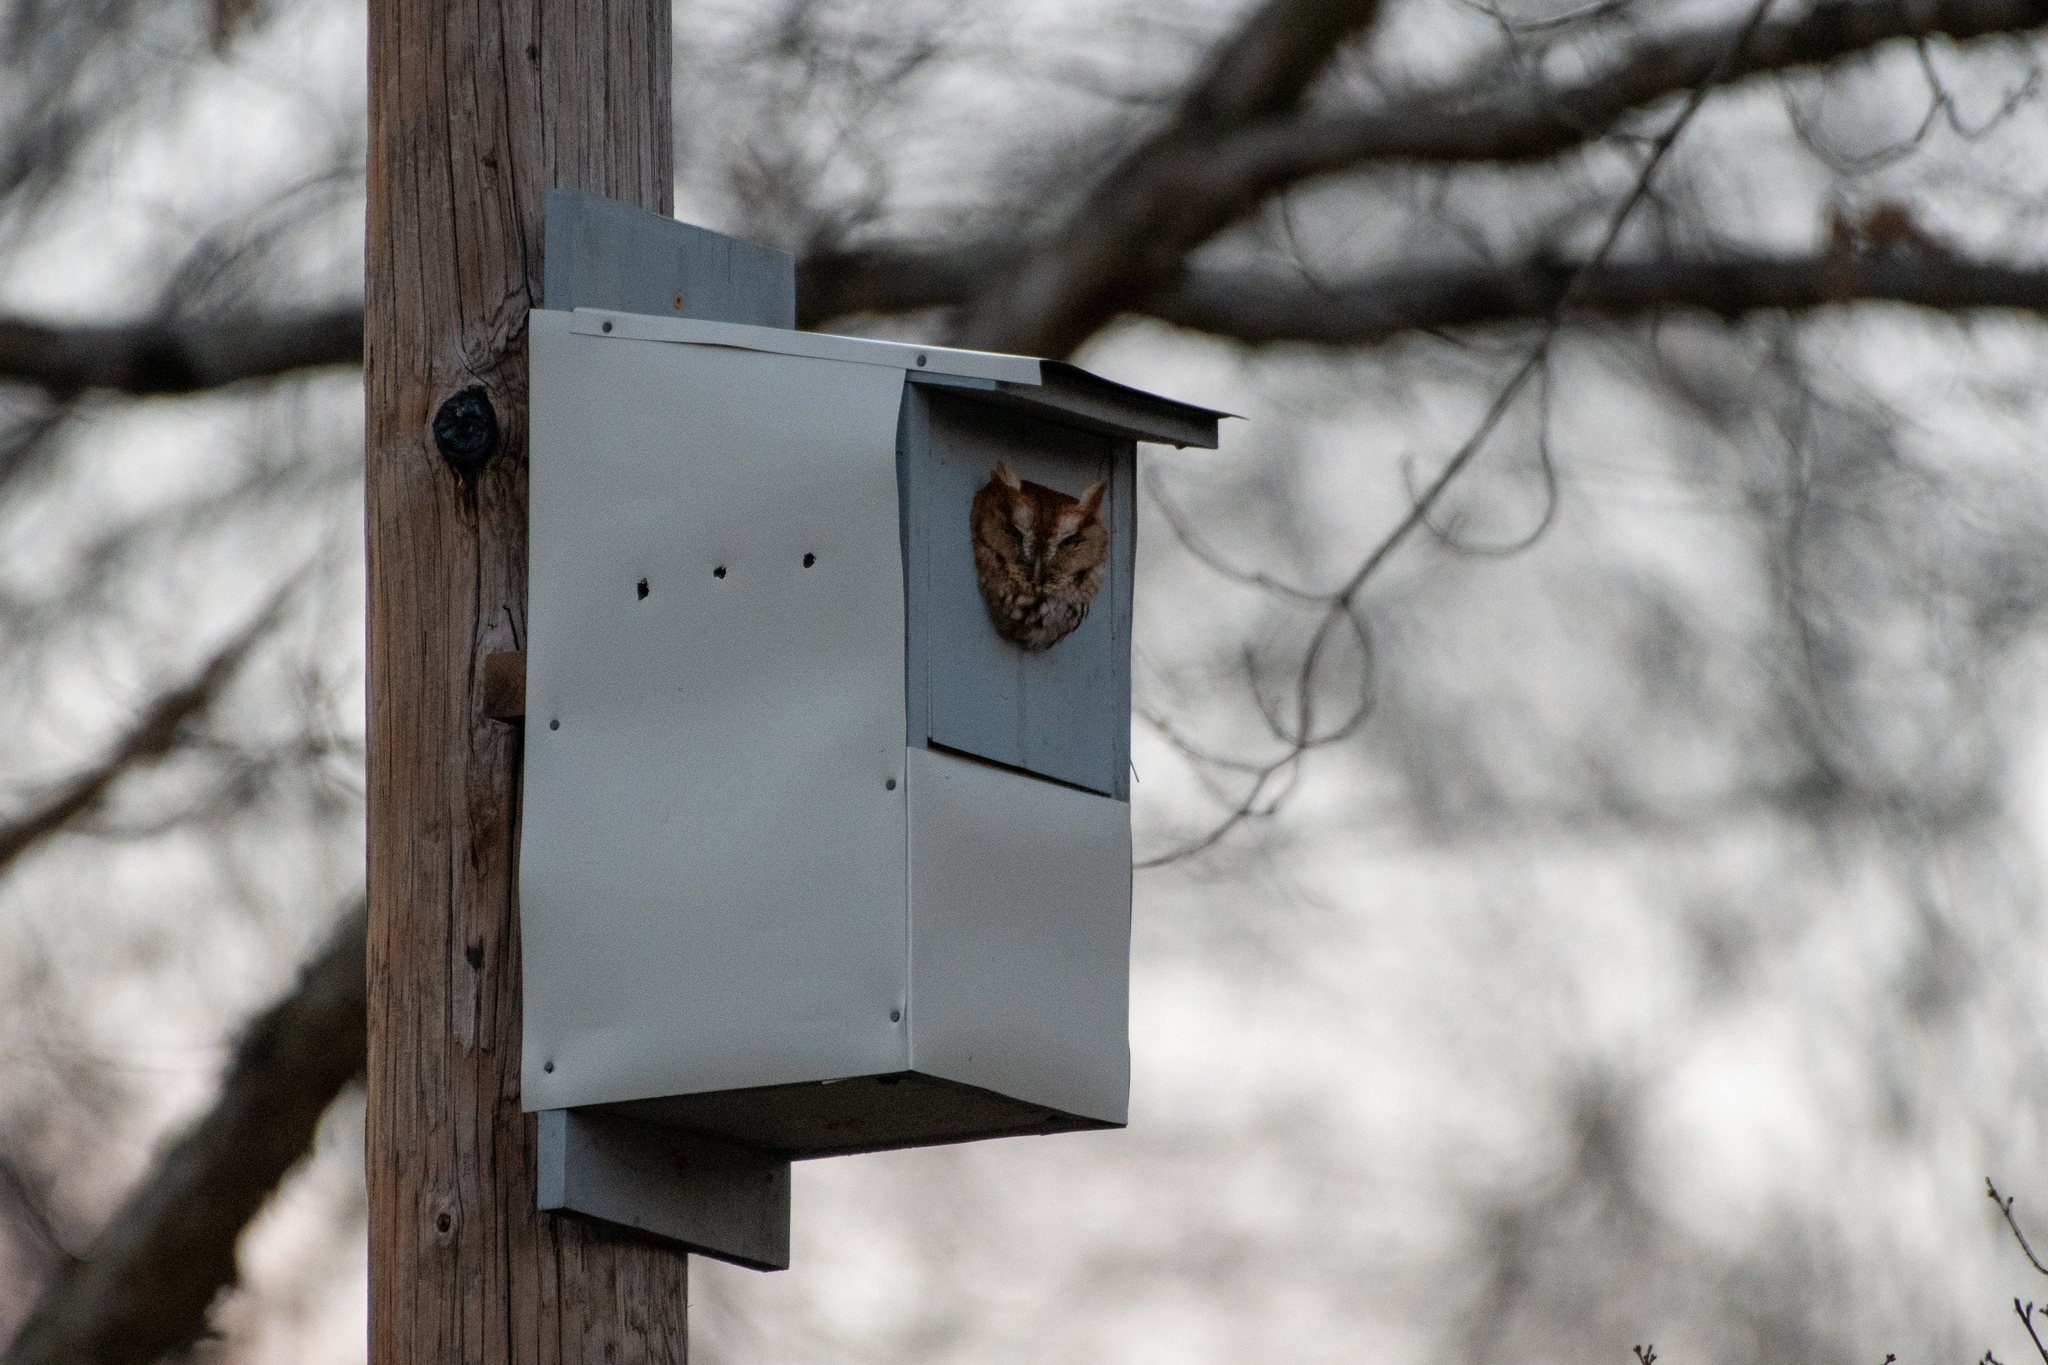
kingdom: Animalia
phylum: Chordata
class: Aves
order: Strigiformes
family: Strigidae
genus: Megascops
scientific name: Megascops asio
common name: Eastern screech-owl
